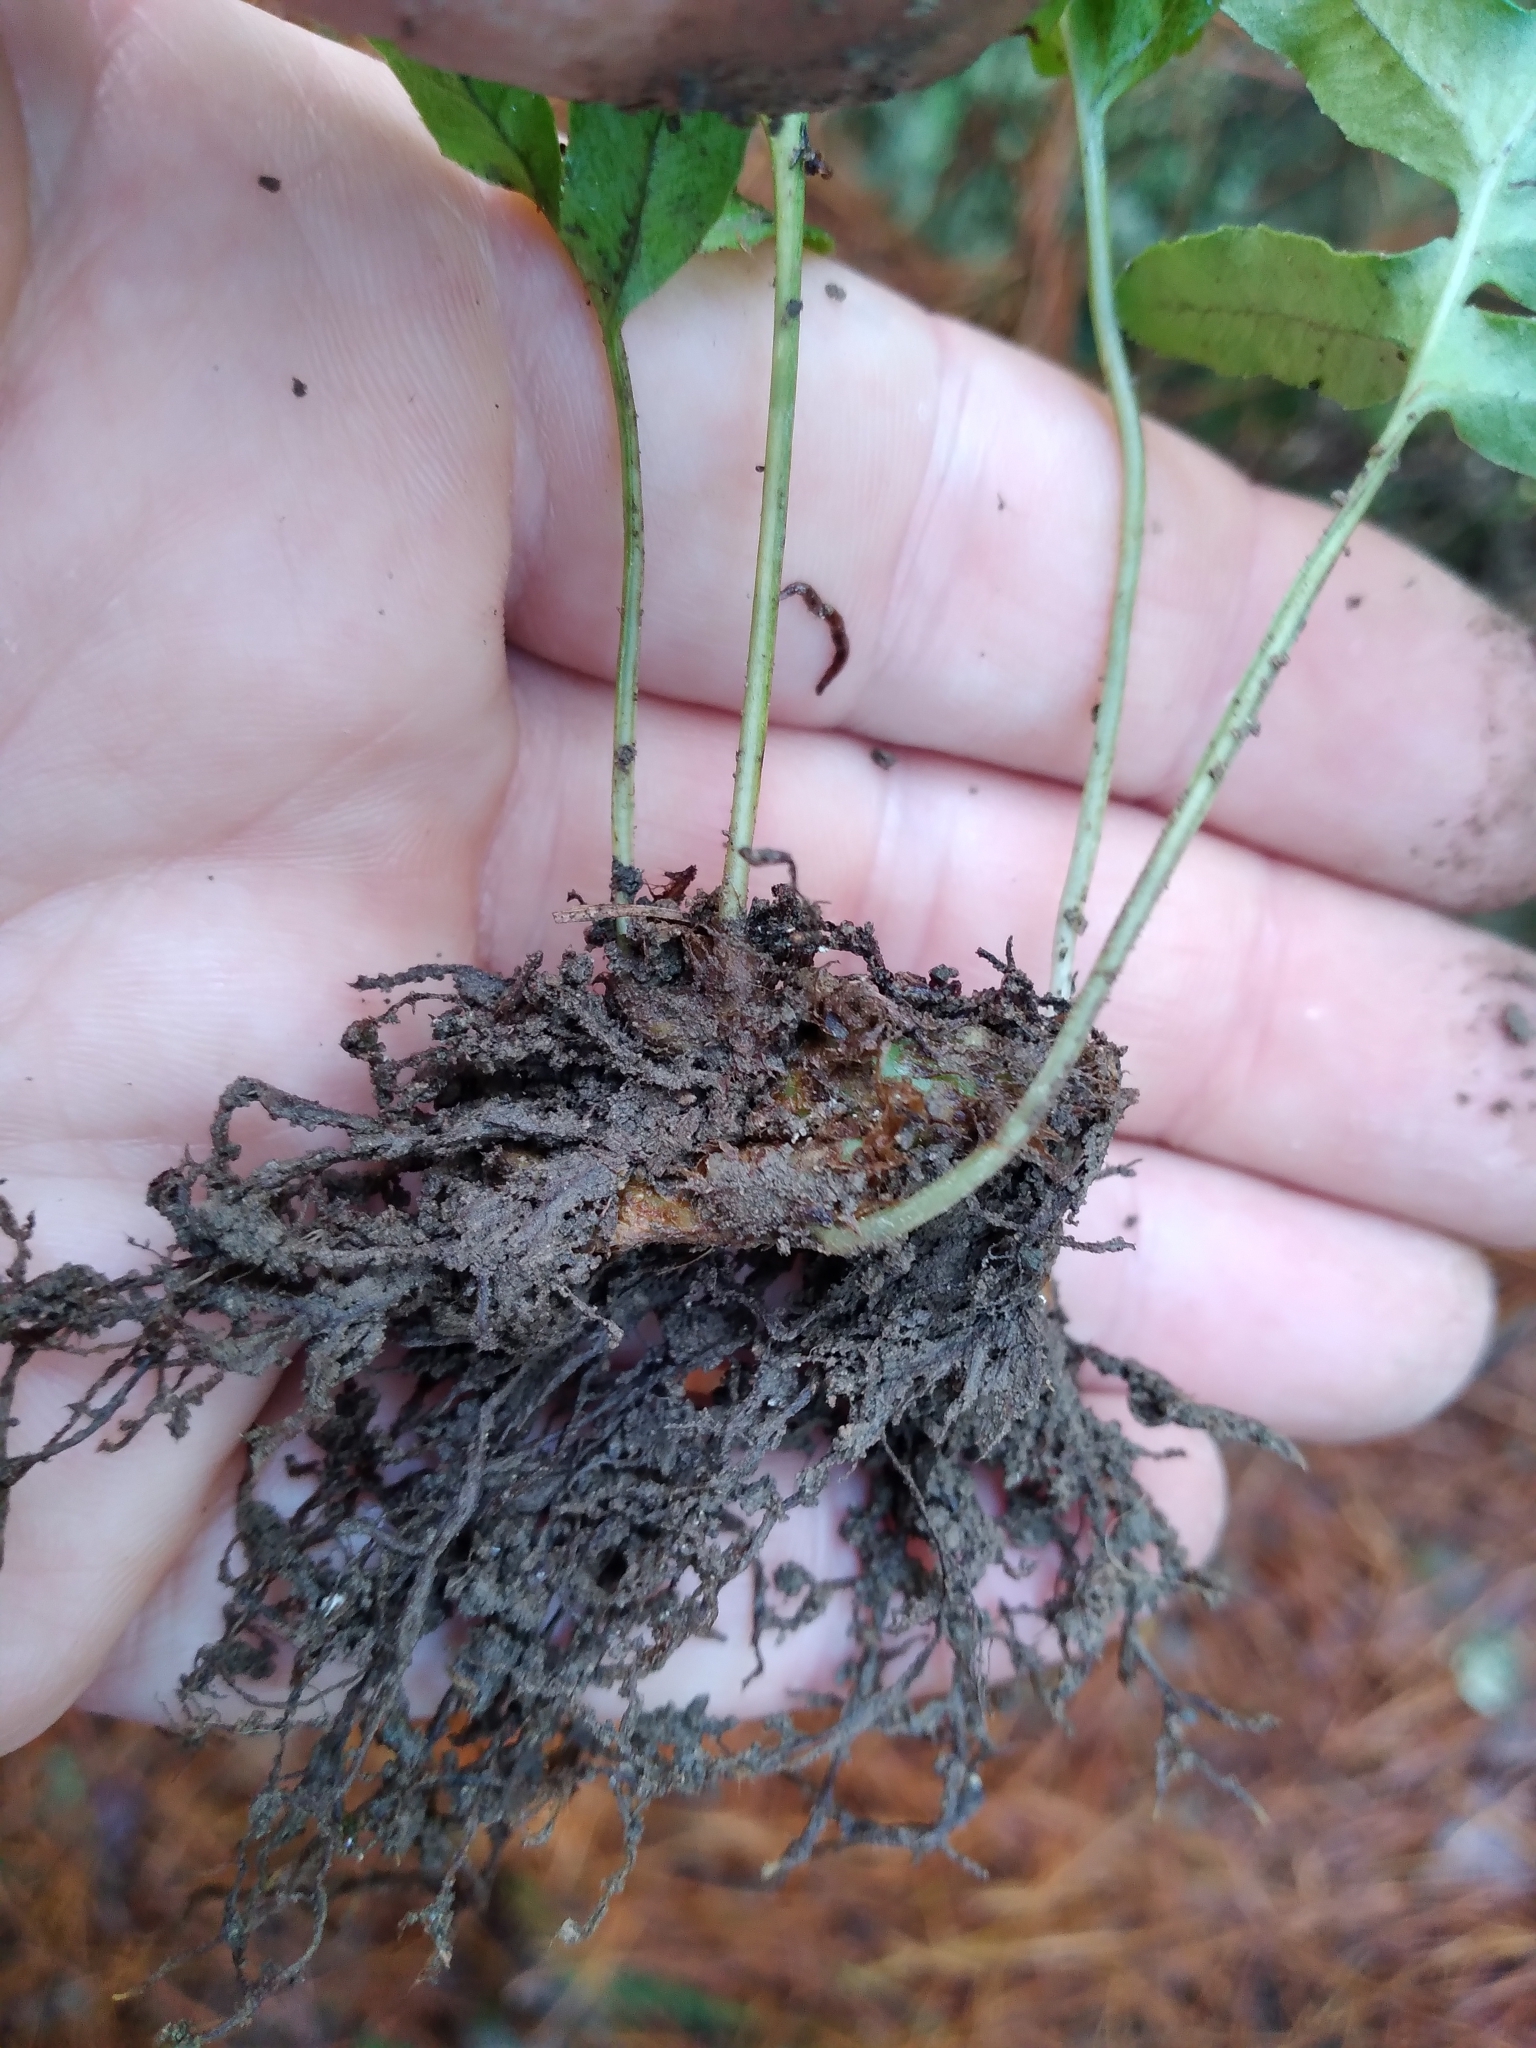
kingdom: Plantae
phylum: Tracheophyta
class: Polypodiopsida
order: Polypodiales
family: Polypodiaceae
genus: Polypodium
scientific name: Polypodium vulgare
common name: Common polypody
